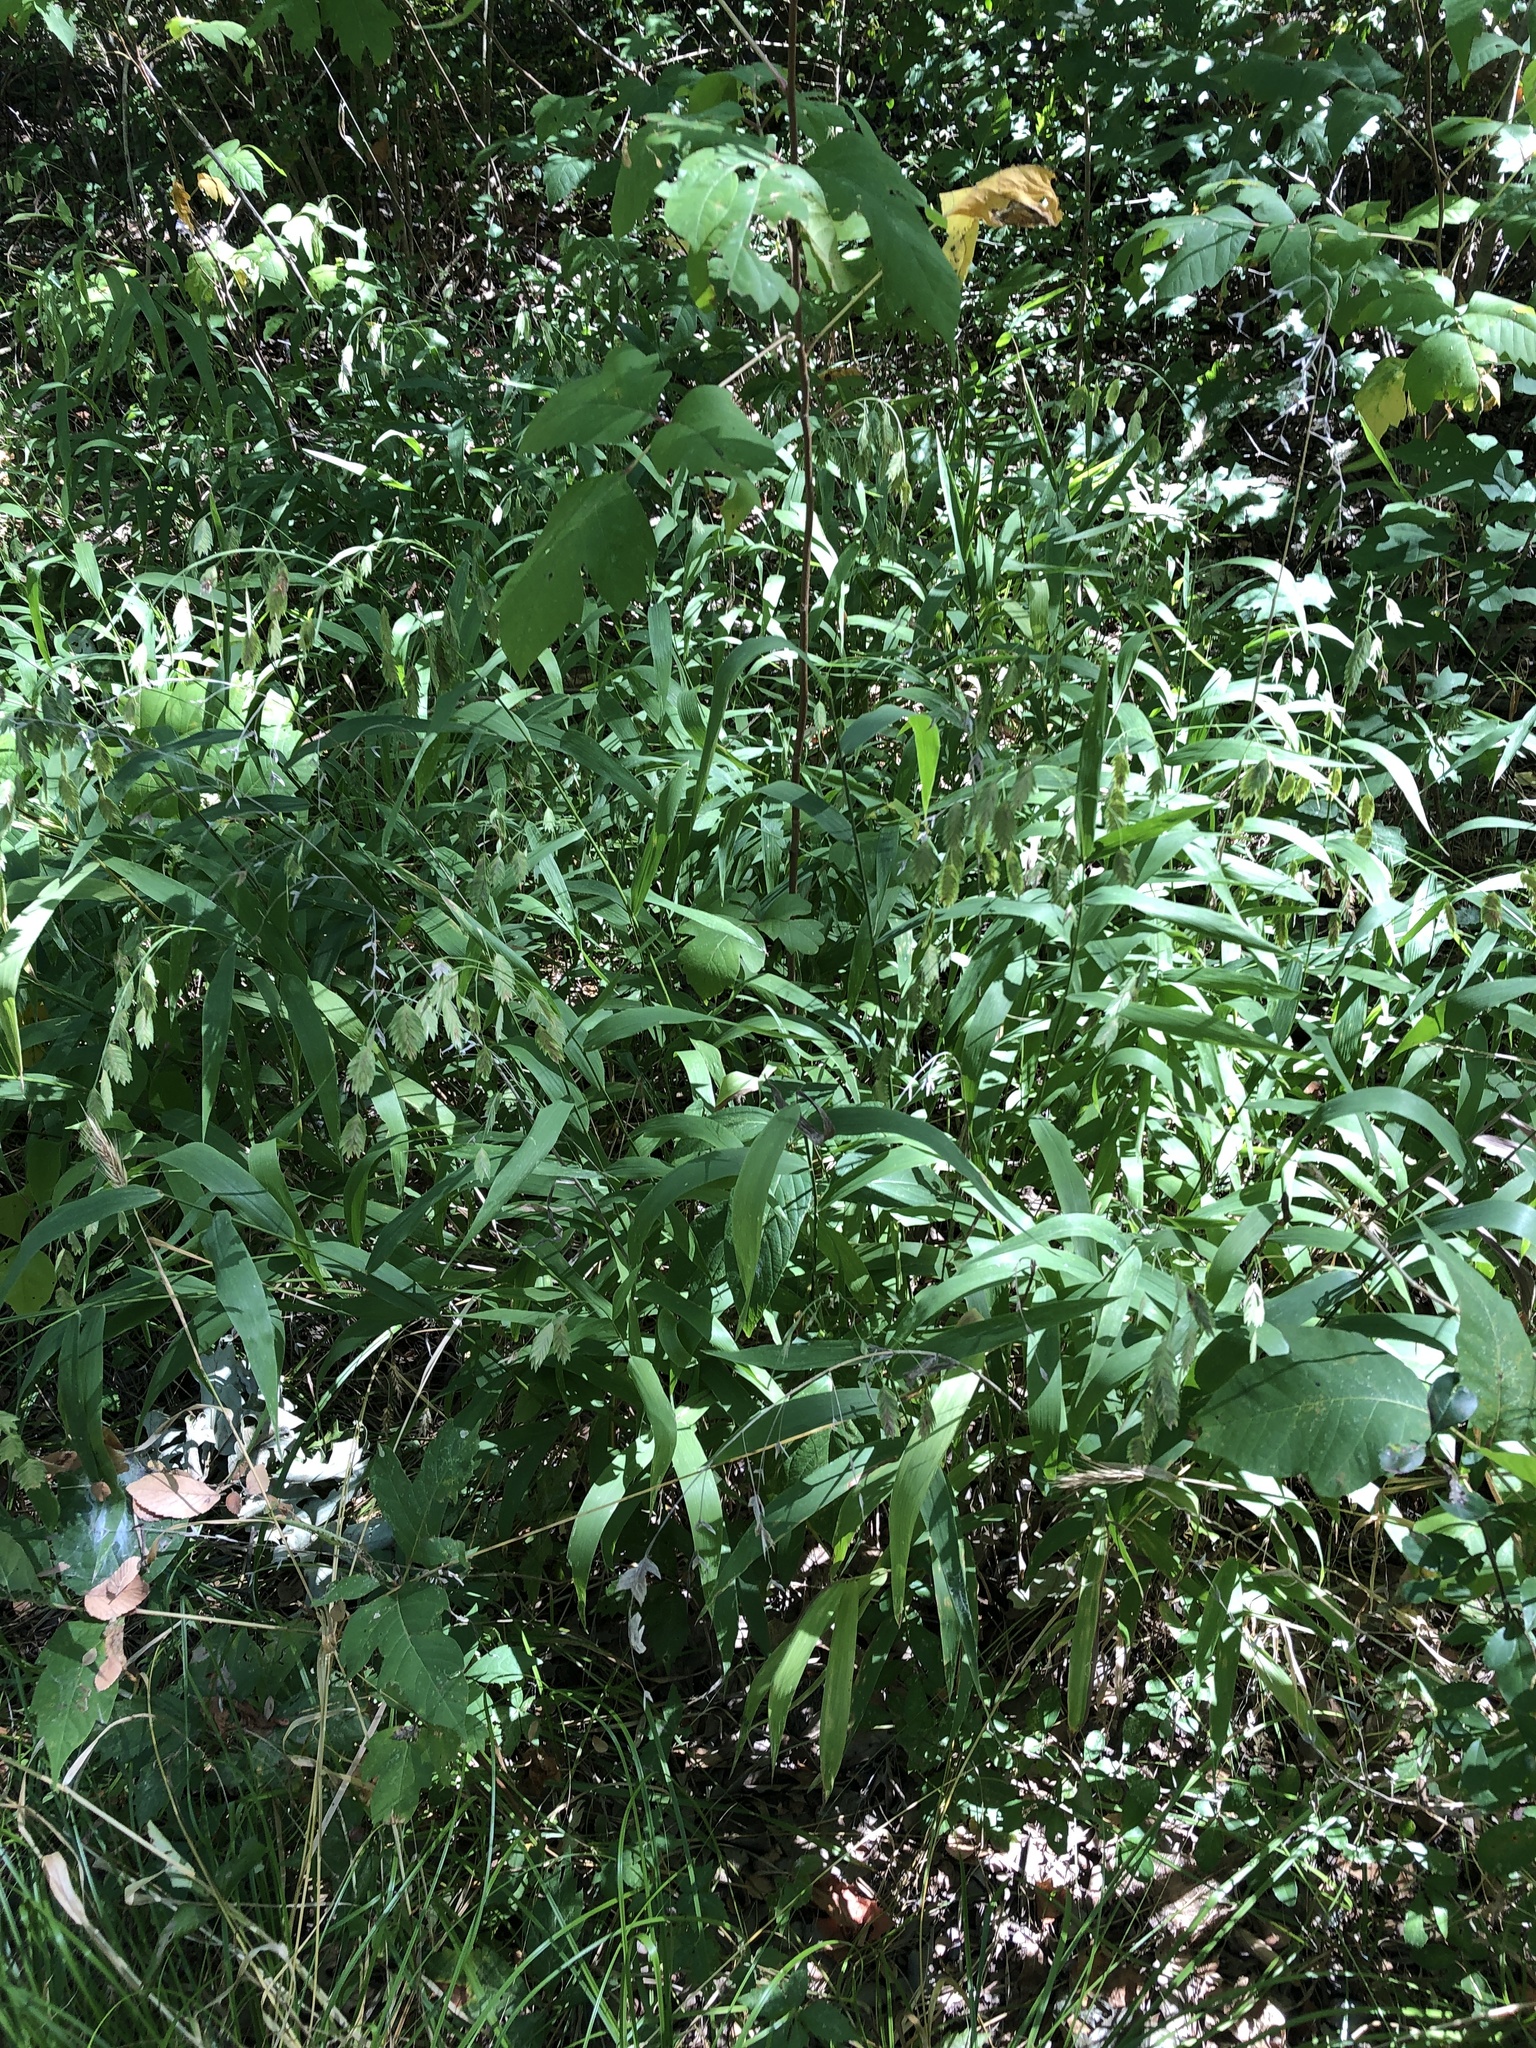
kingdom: Plantae
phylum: Tracheophyta
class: Liliopsida
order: Poales
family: Poaceae
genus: Chasmanthium
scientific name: Chasmanthium latifolium
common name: Broad-leaved chasmanthium
